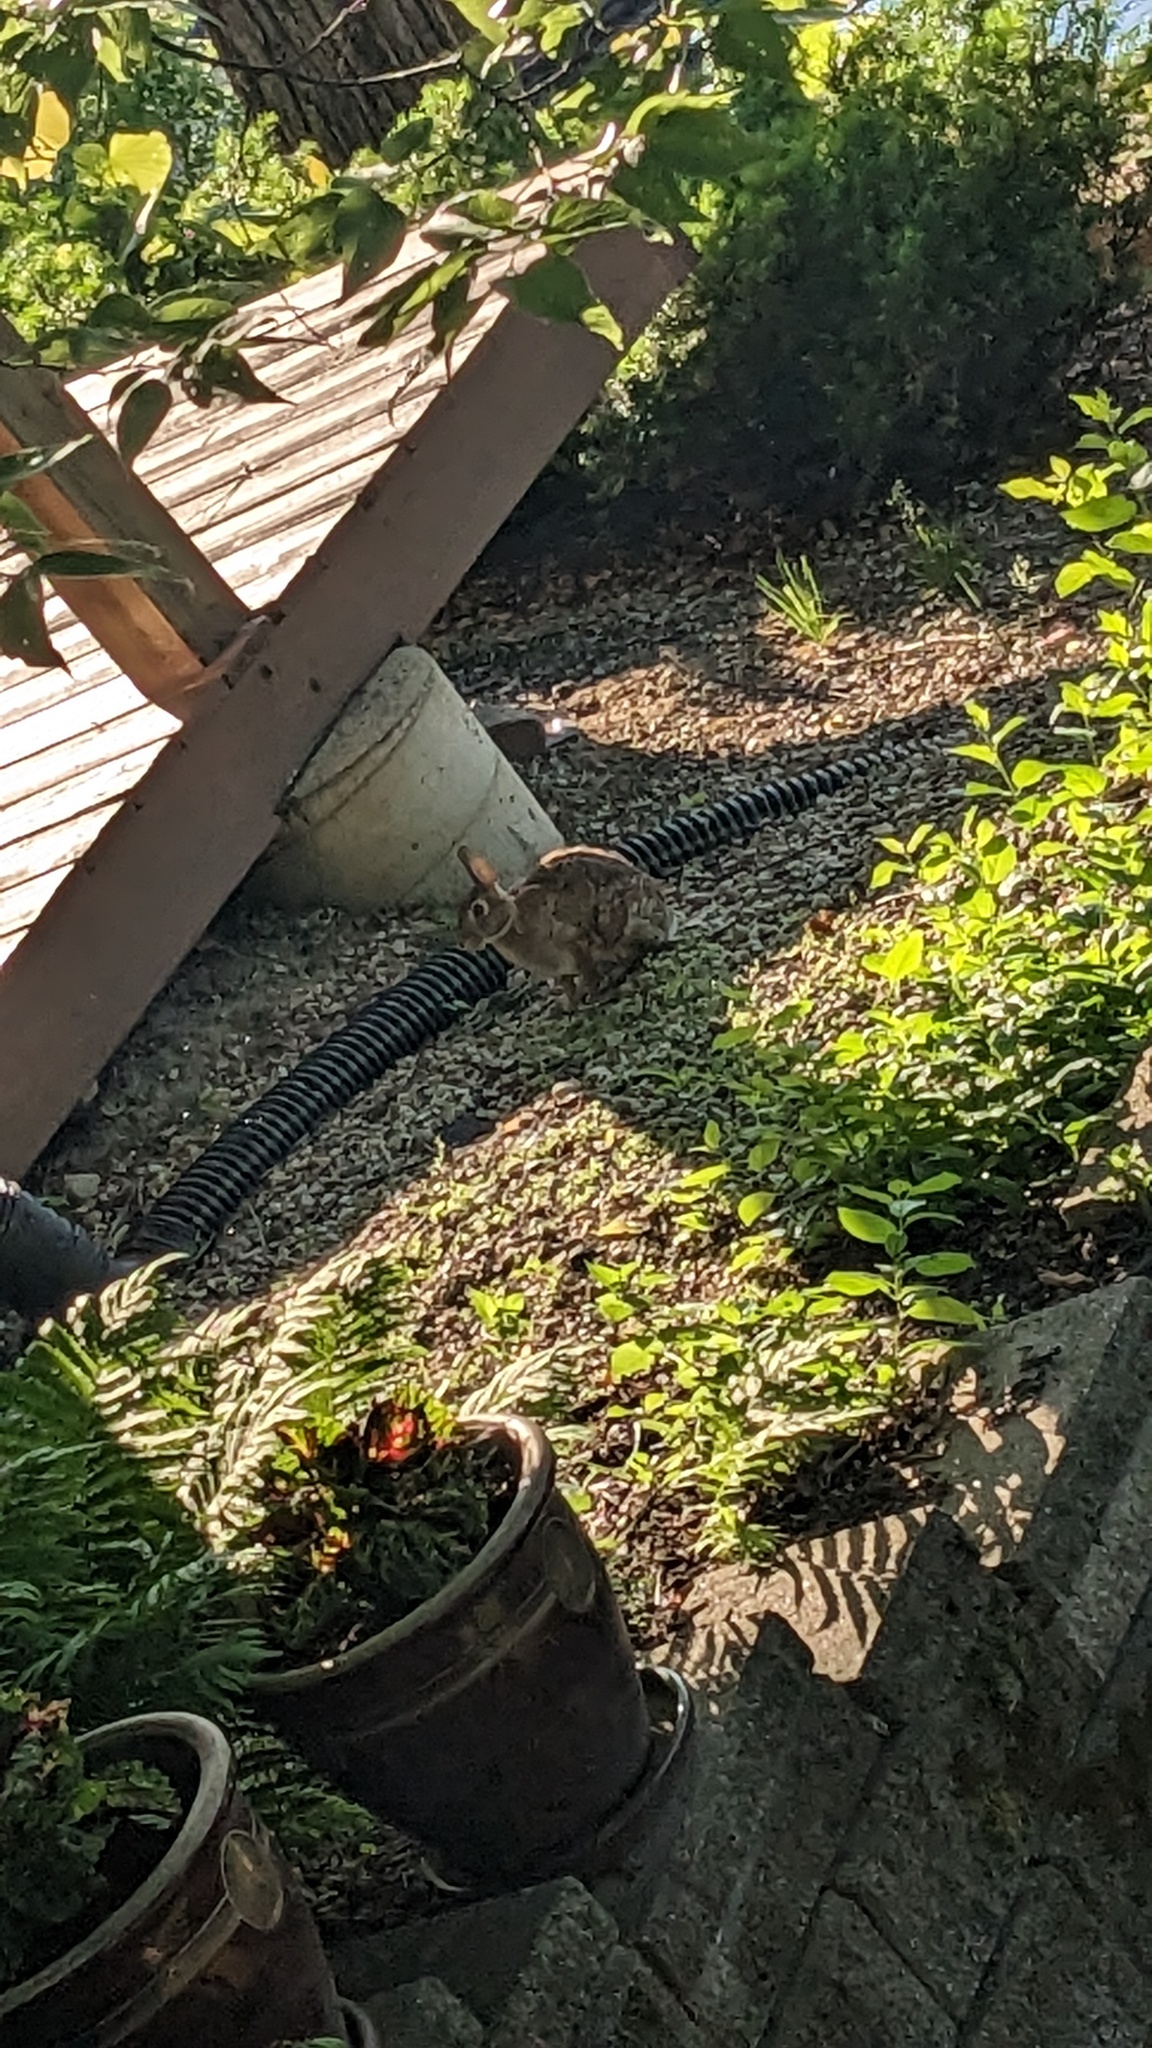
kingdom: Animalia
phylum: Chordata
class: Mammalia
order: Lagomorpha
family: Leporidae
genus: Sylvilagus
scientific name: Sylvilagus floridanus
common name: Eastern cottontail
